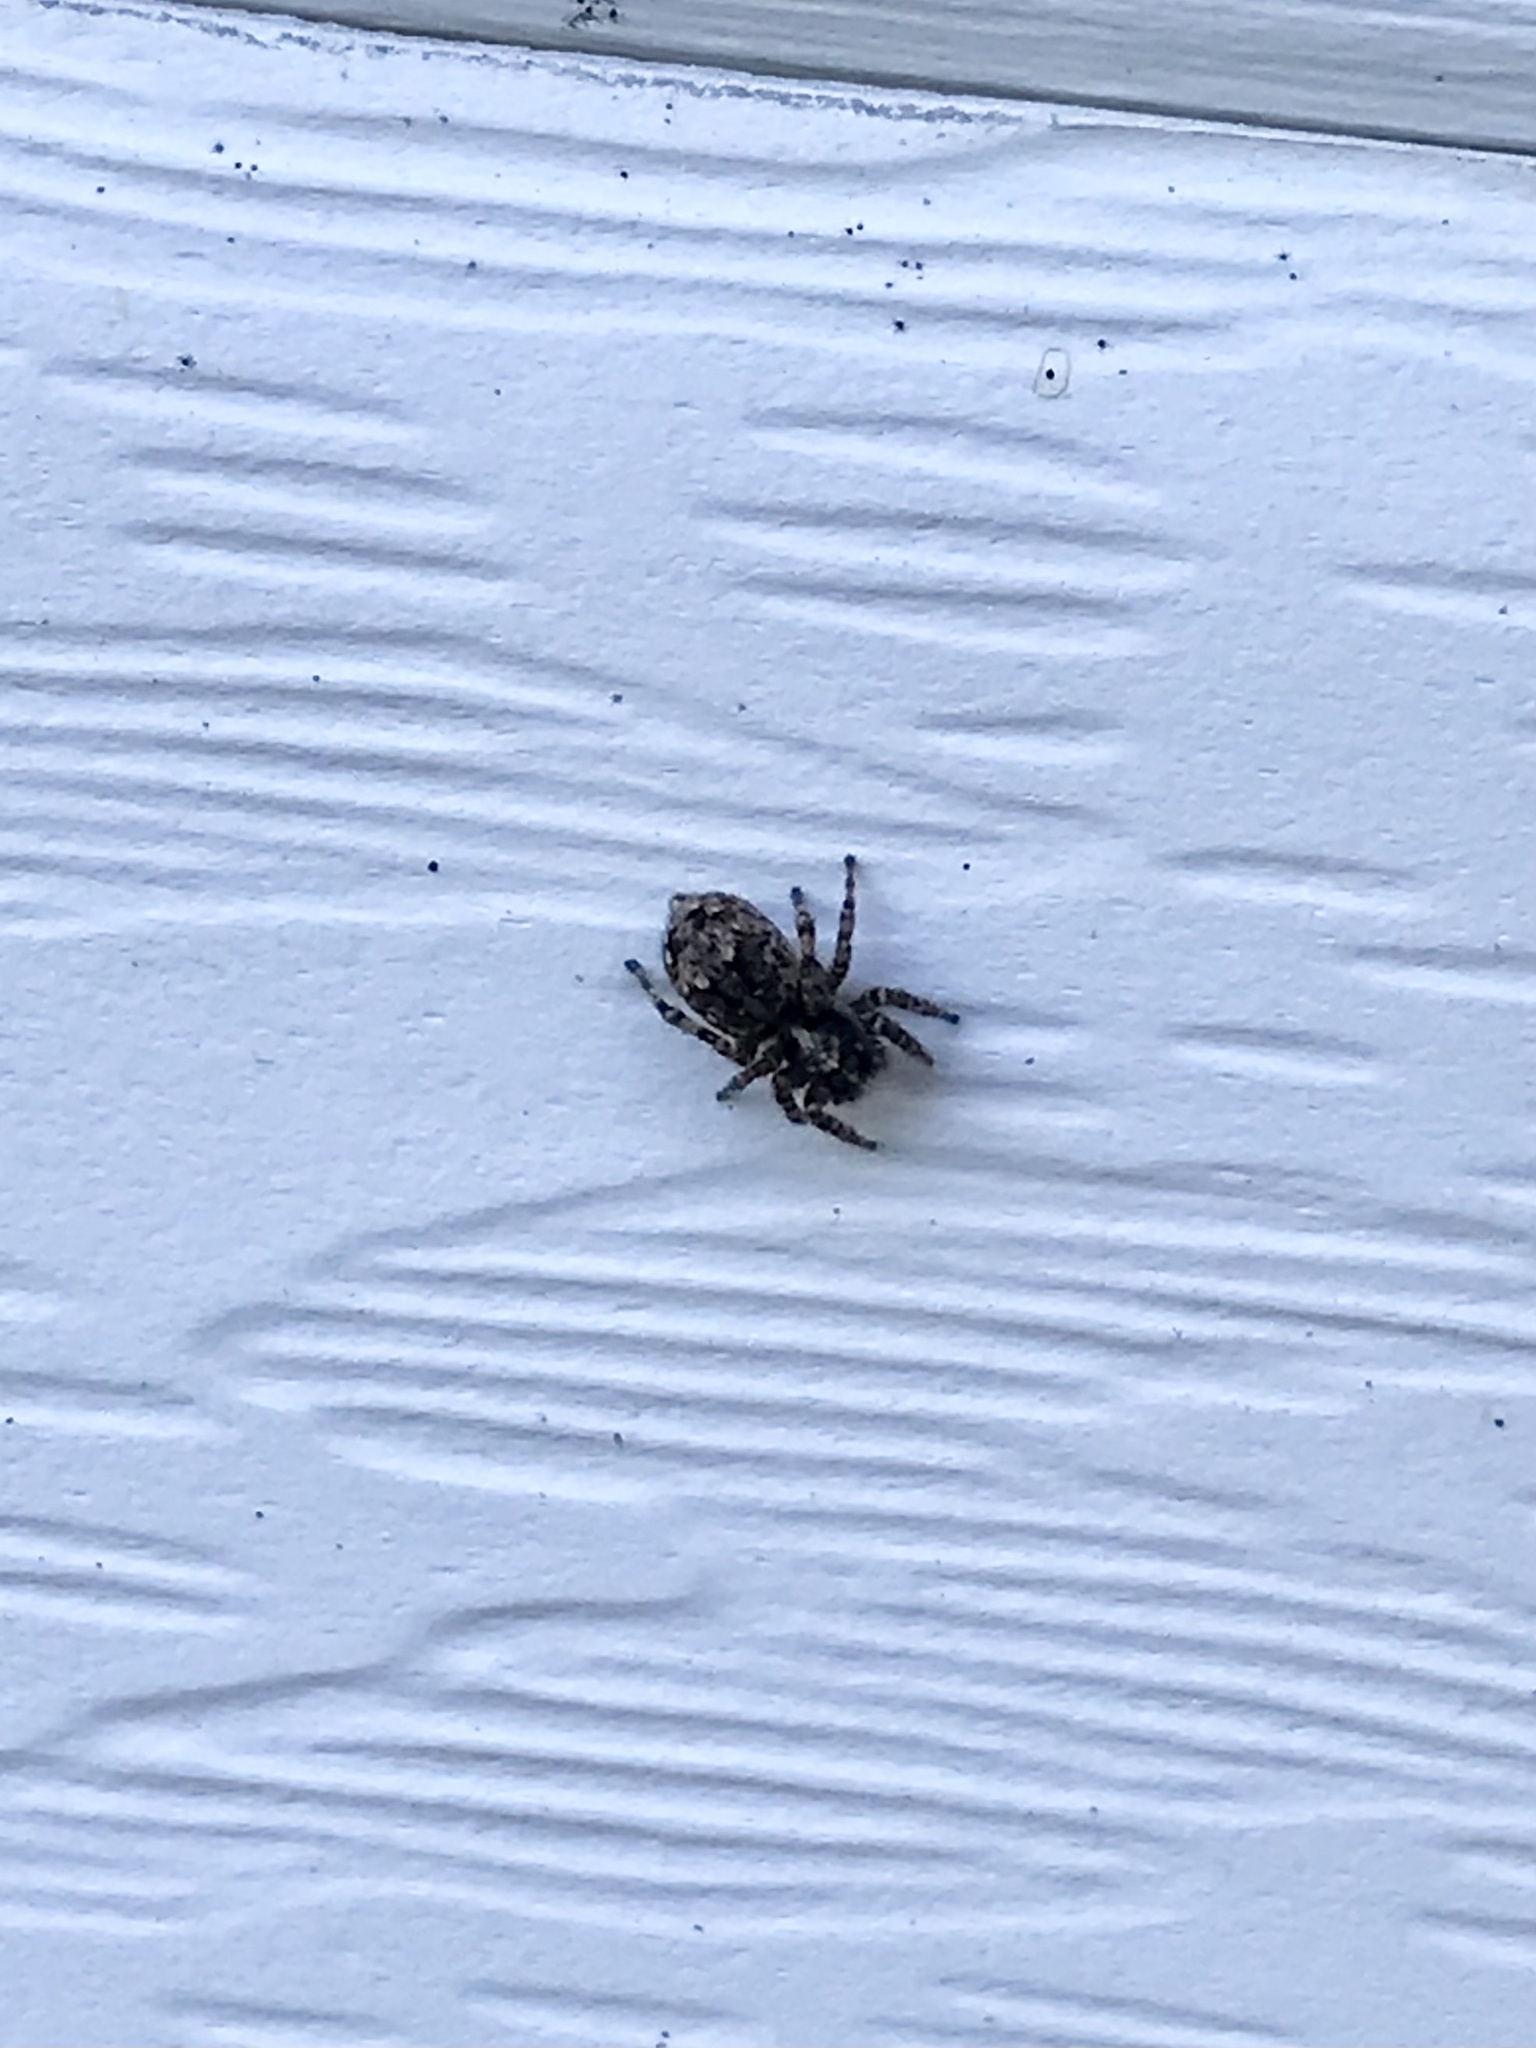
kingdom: Animalia
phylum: Arthropoda
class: Arachnida
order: Araneae
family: Salticidae
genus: Attulus
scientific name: Attulus fasciger
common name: Asiatic wall jumping spider
